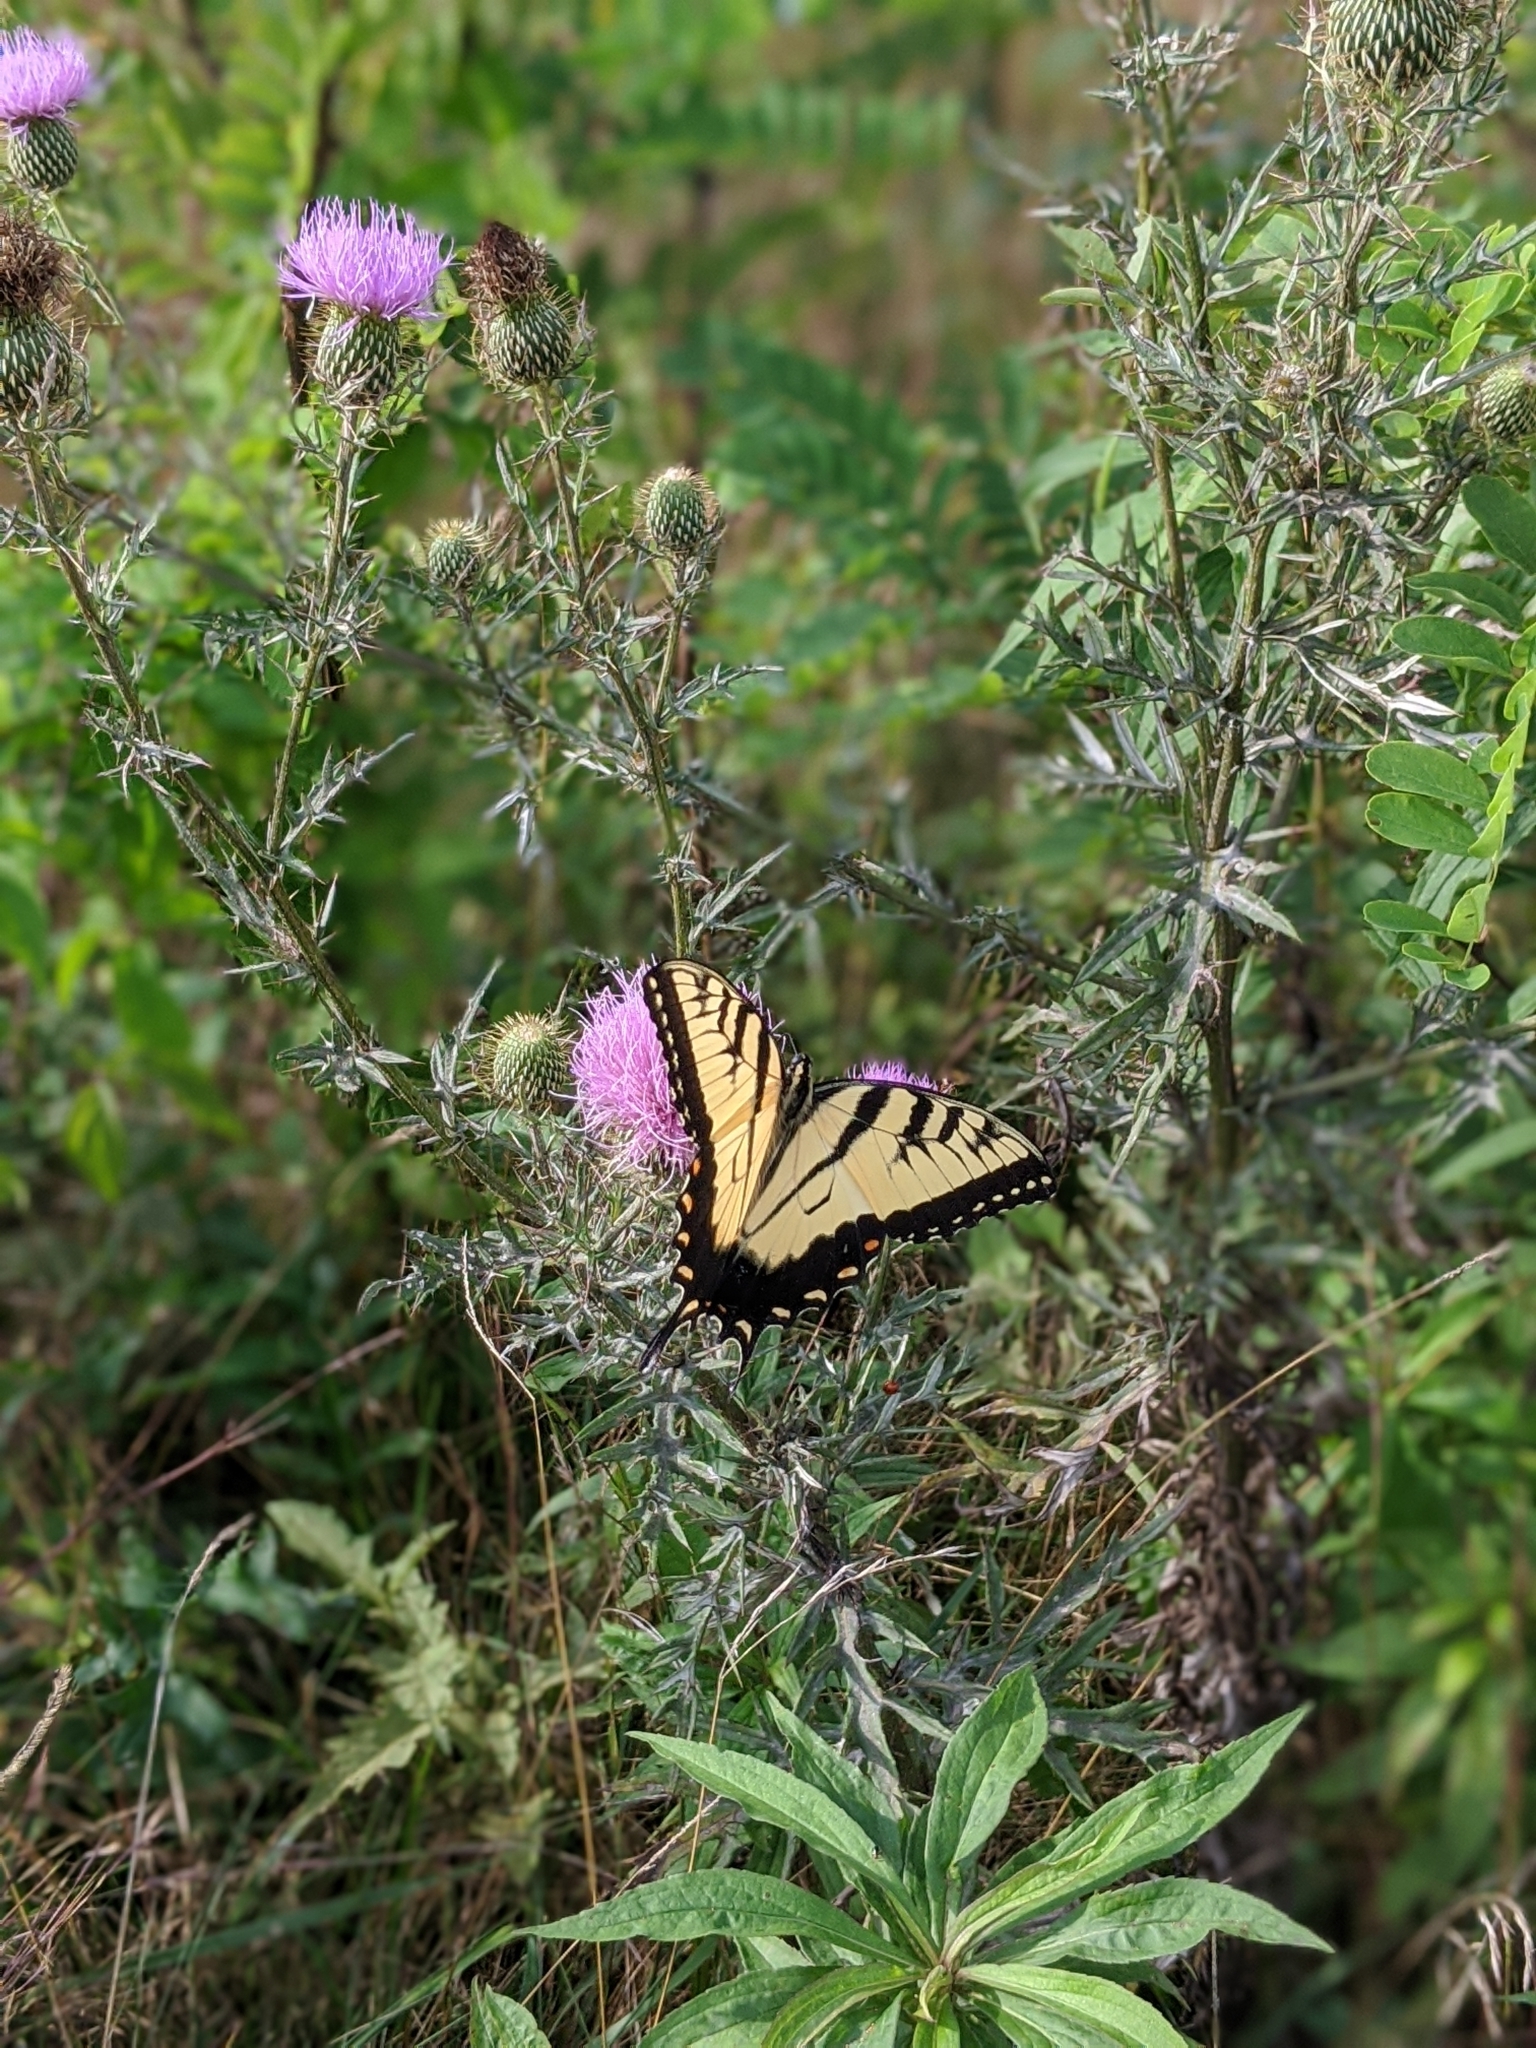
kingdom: Animalia
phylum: Arthropoda
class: Insecta
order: Lepidoptera
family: Papilionidae
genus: Papilio
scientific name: Papilio glaucus
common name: Tiger swallowtail
